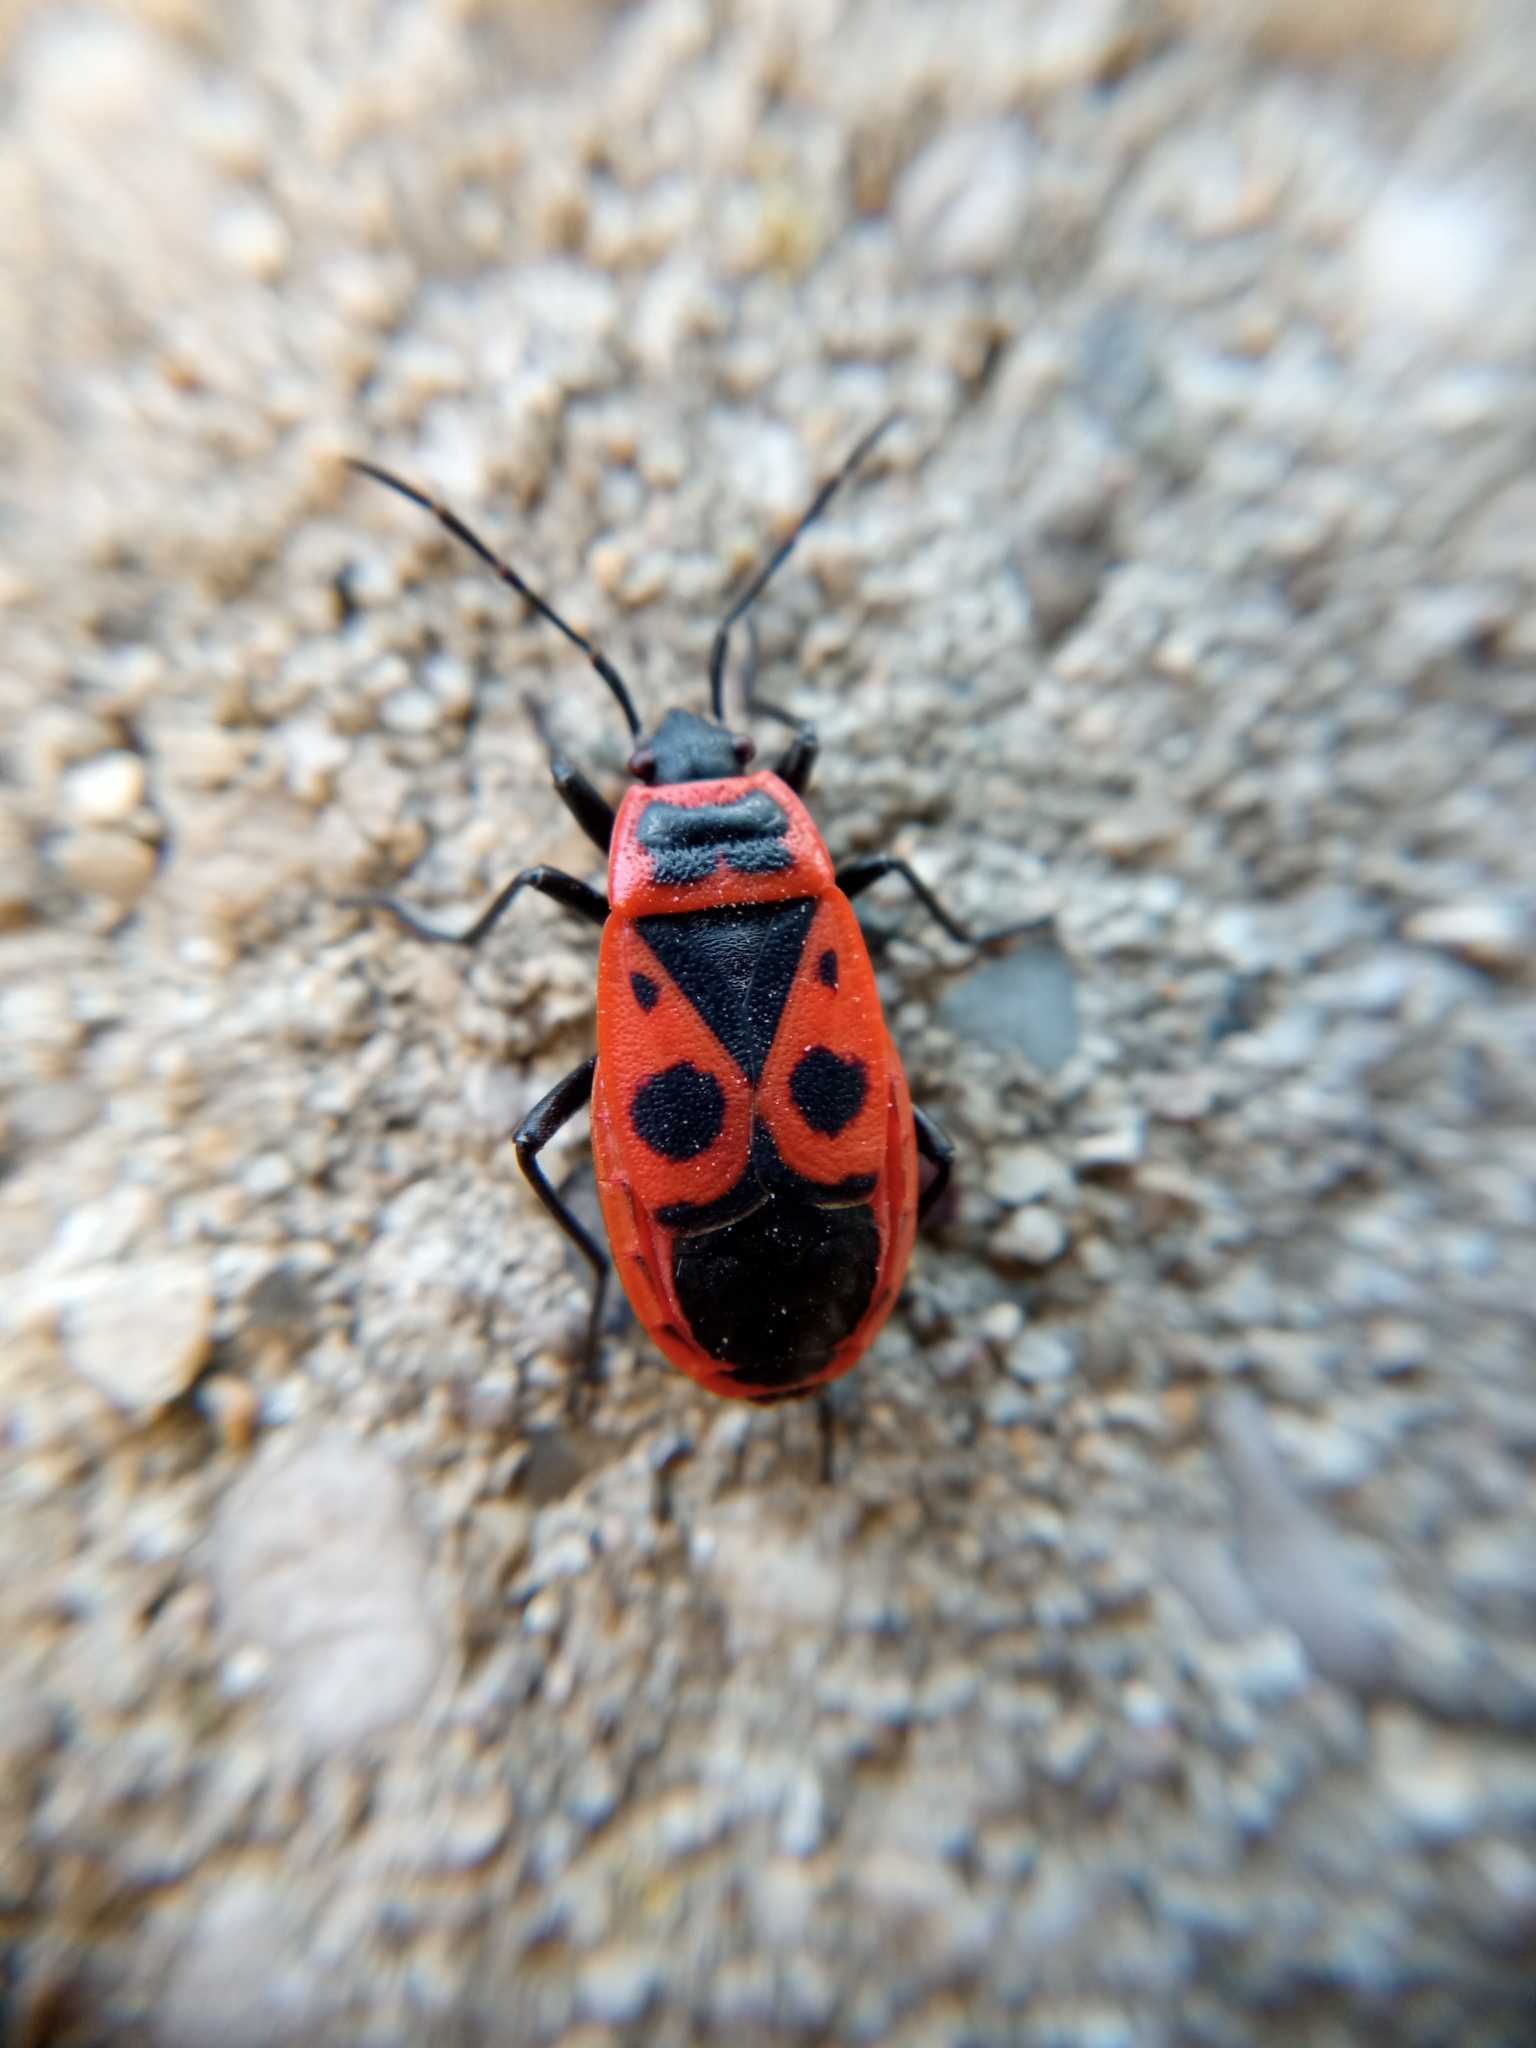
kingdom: Animalia
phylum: Arthropoda
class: Insecta
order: Hemiptera
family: Pyrrhocoridae
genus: Pyrrhocoris
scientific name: Pyrrhocoris apterus
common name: Firebug
